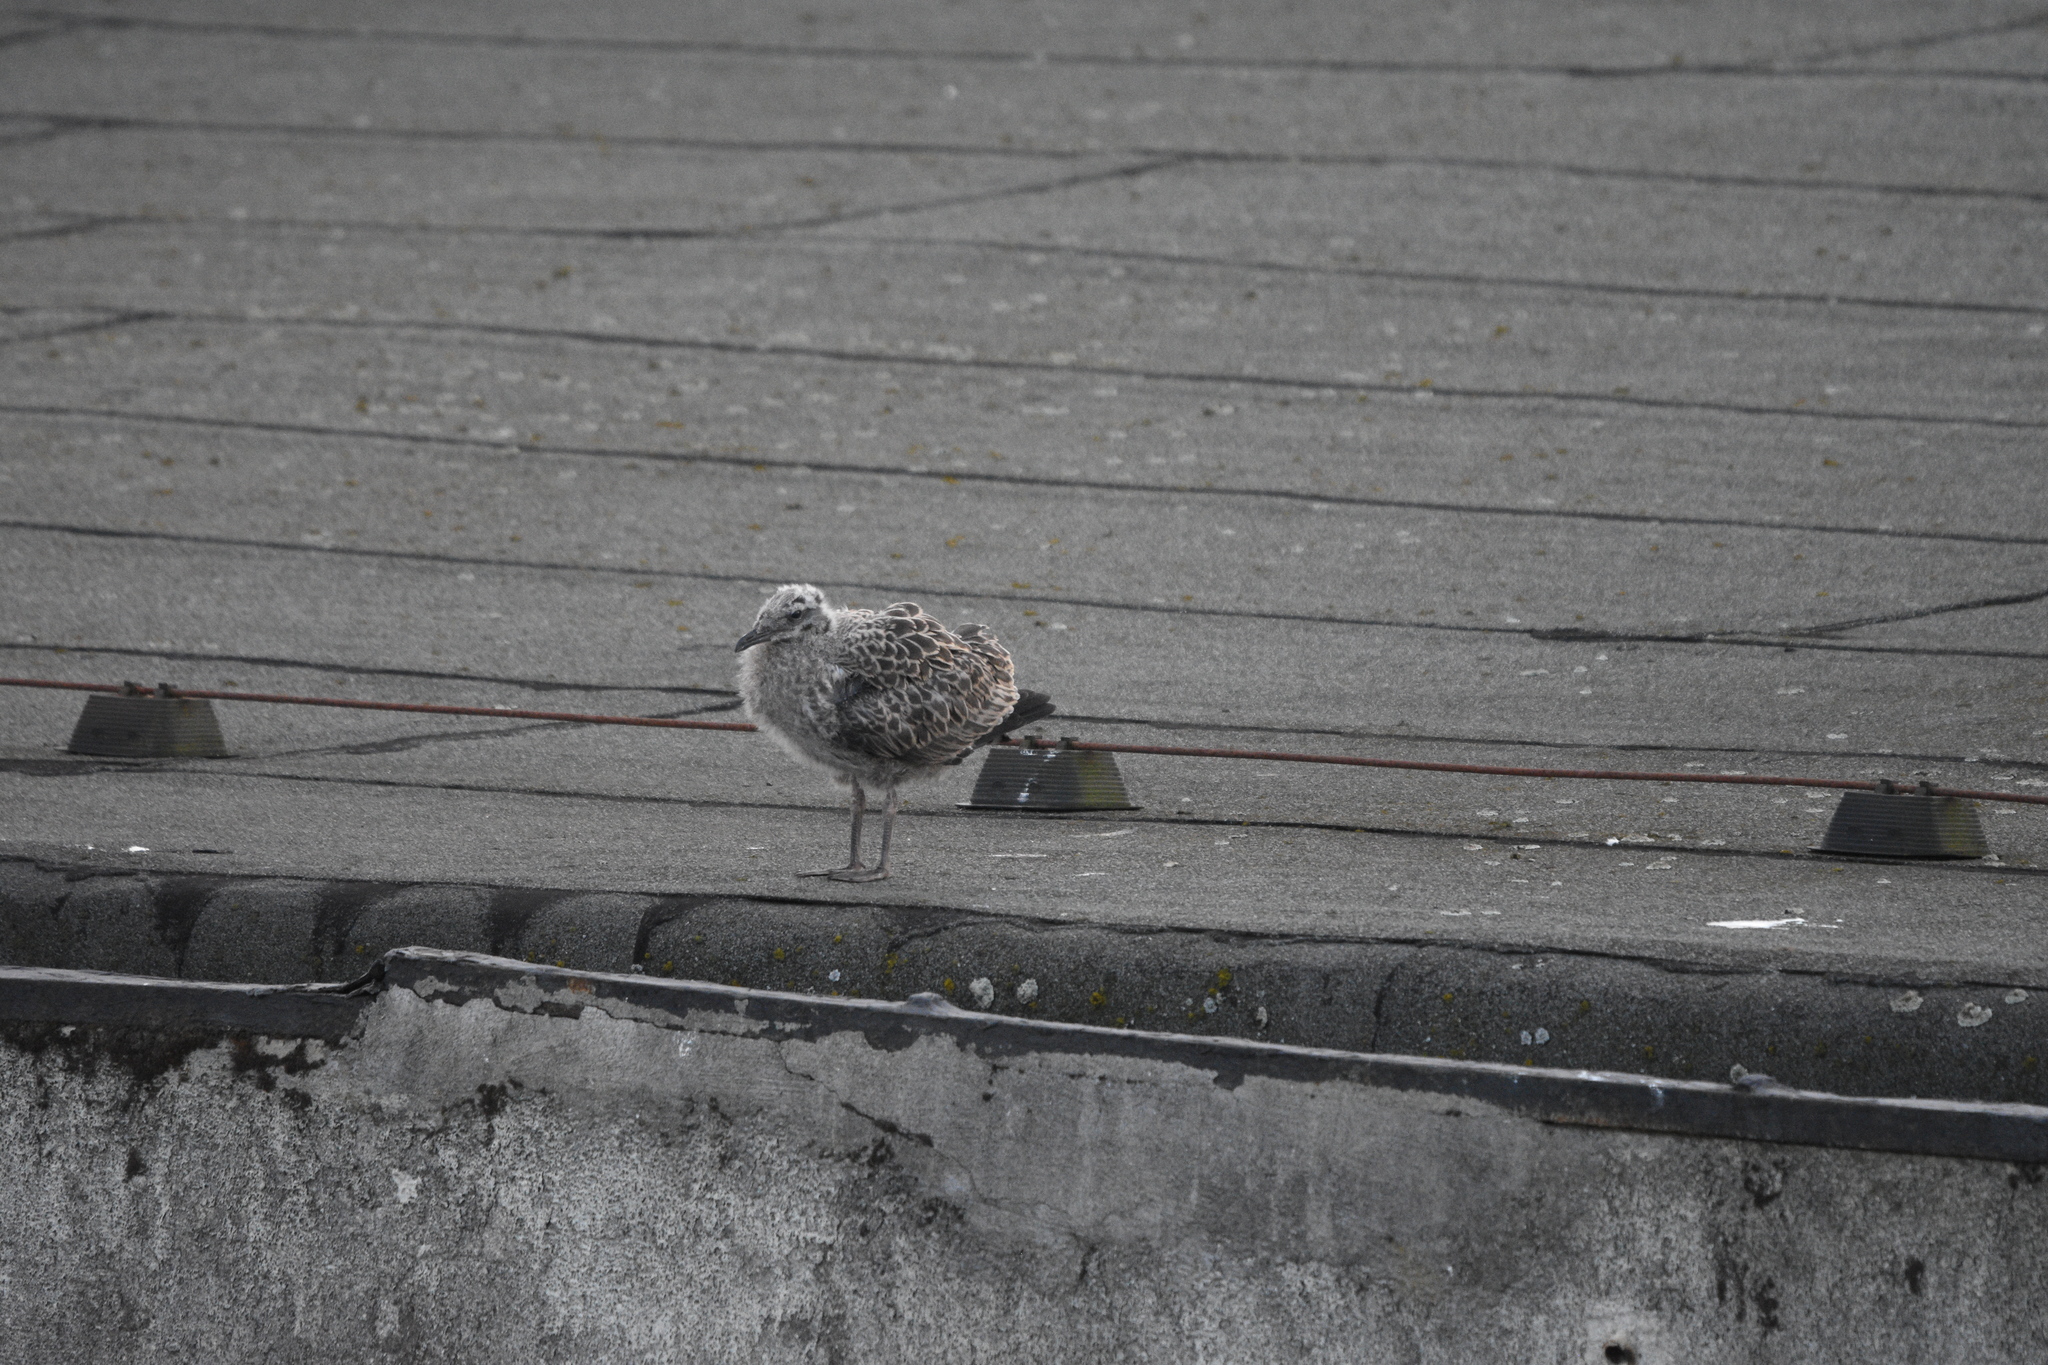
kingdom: Animalia
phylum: Chordata
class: Aves
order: Charadriiformes
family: Laridae
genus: Larus
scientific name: Larus argentatus
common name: Herring gull
